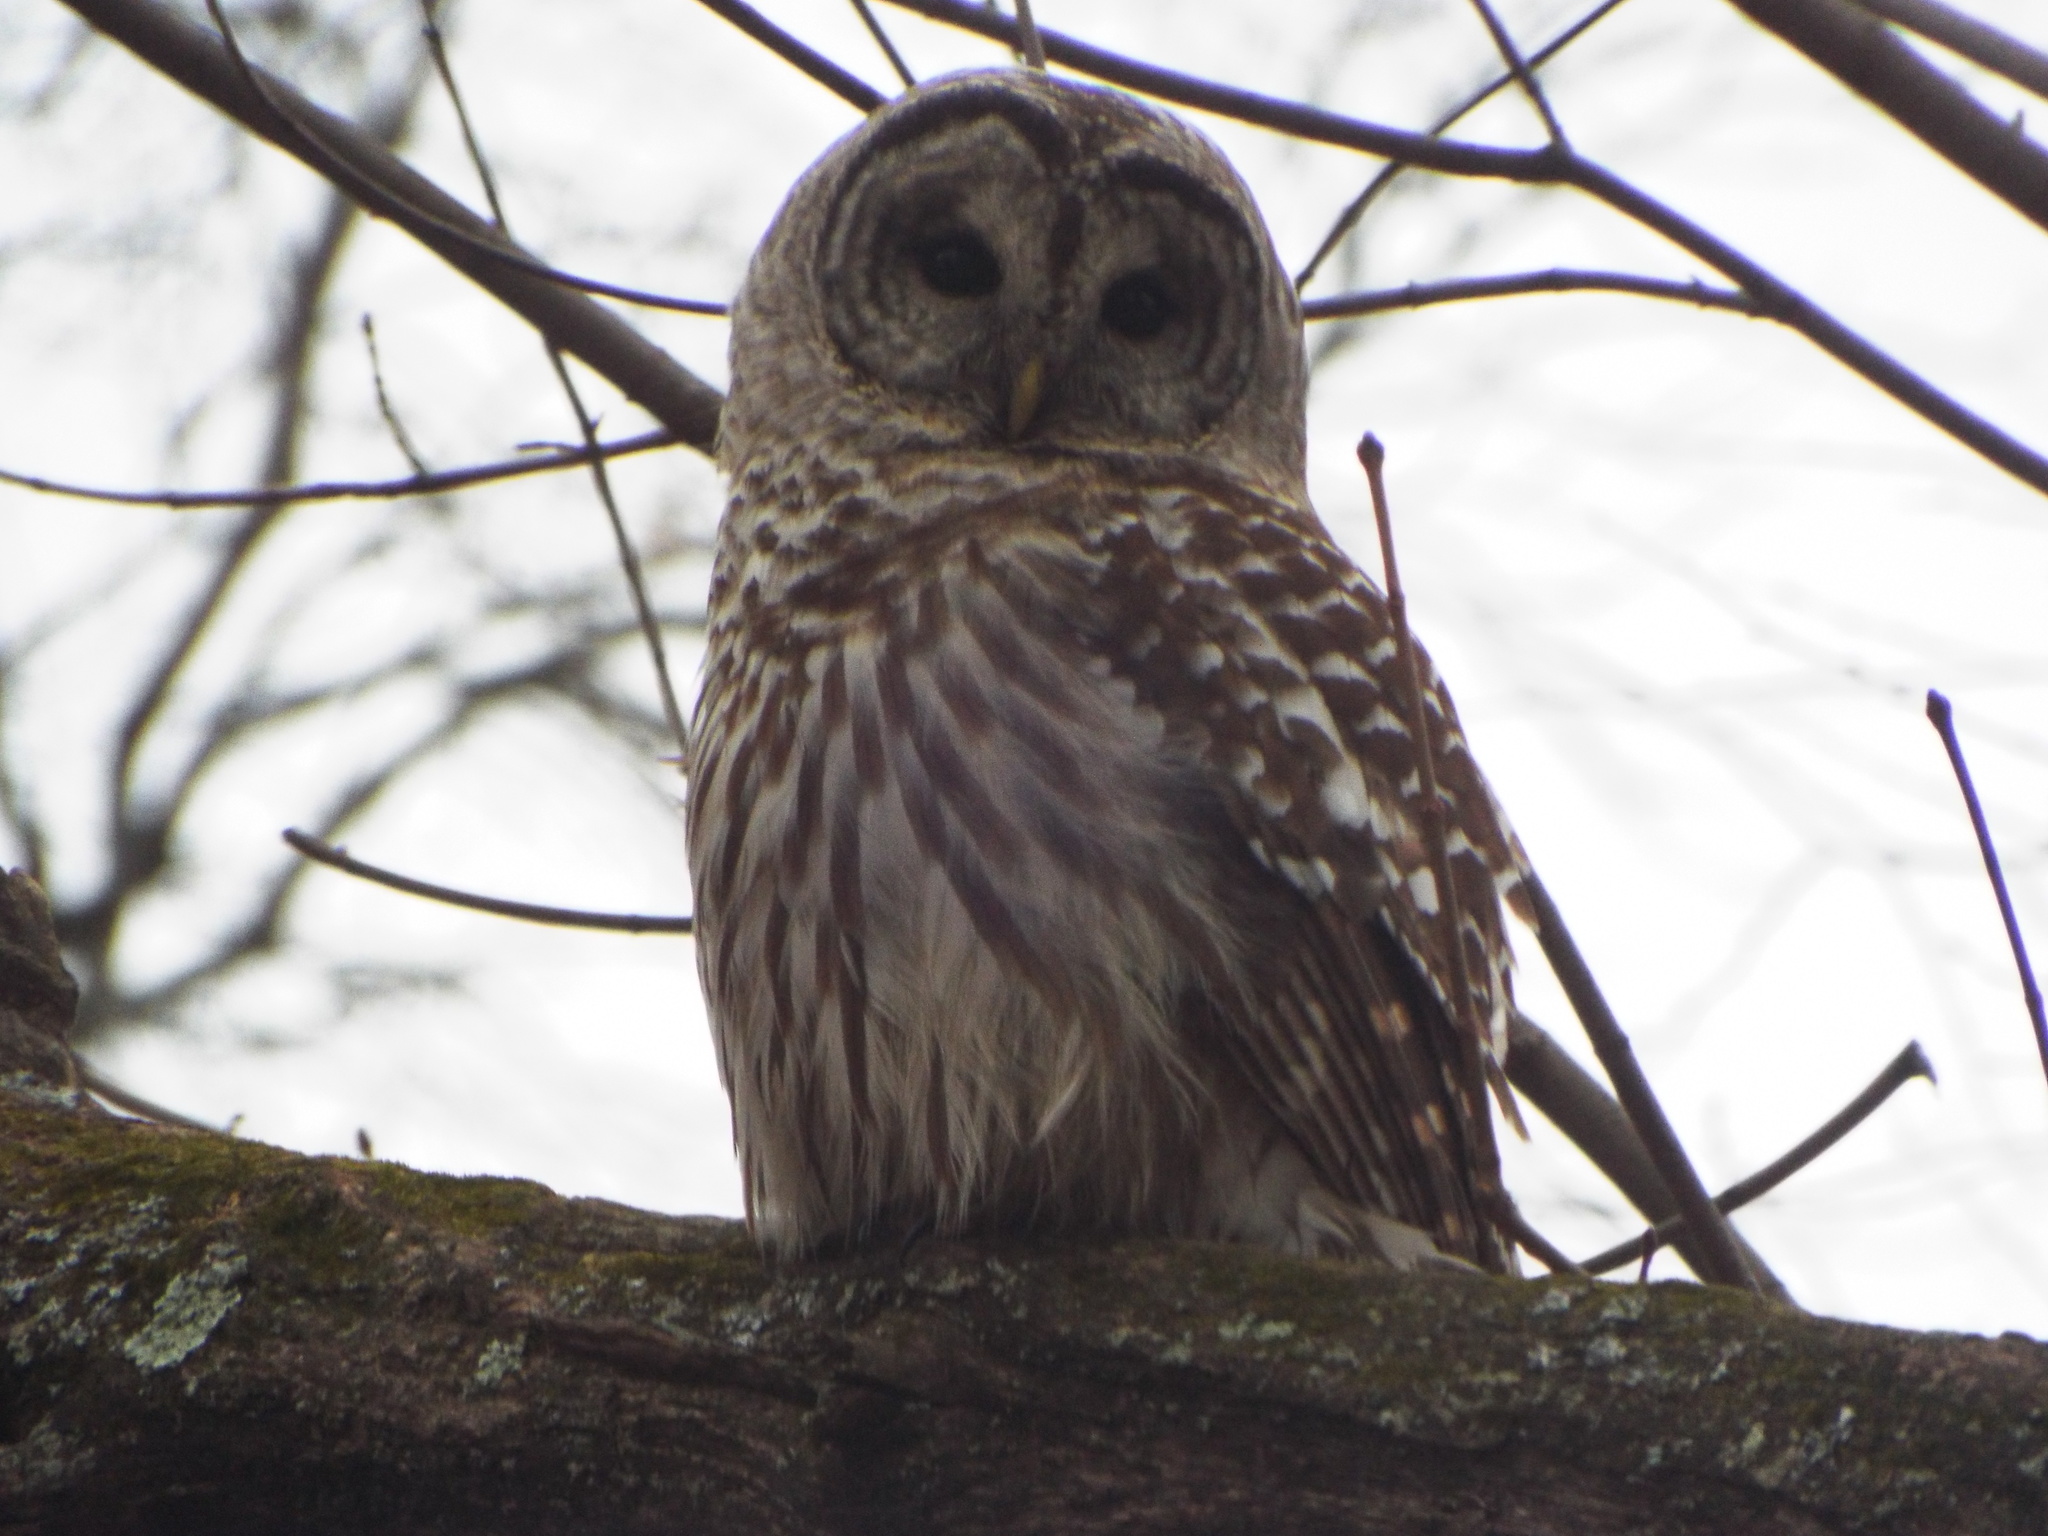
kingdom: Animalia
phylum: Chordata
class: Aves
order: Strigiformes
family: Strigidae
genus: Strix
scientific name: Strix varia
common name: Barred owl
